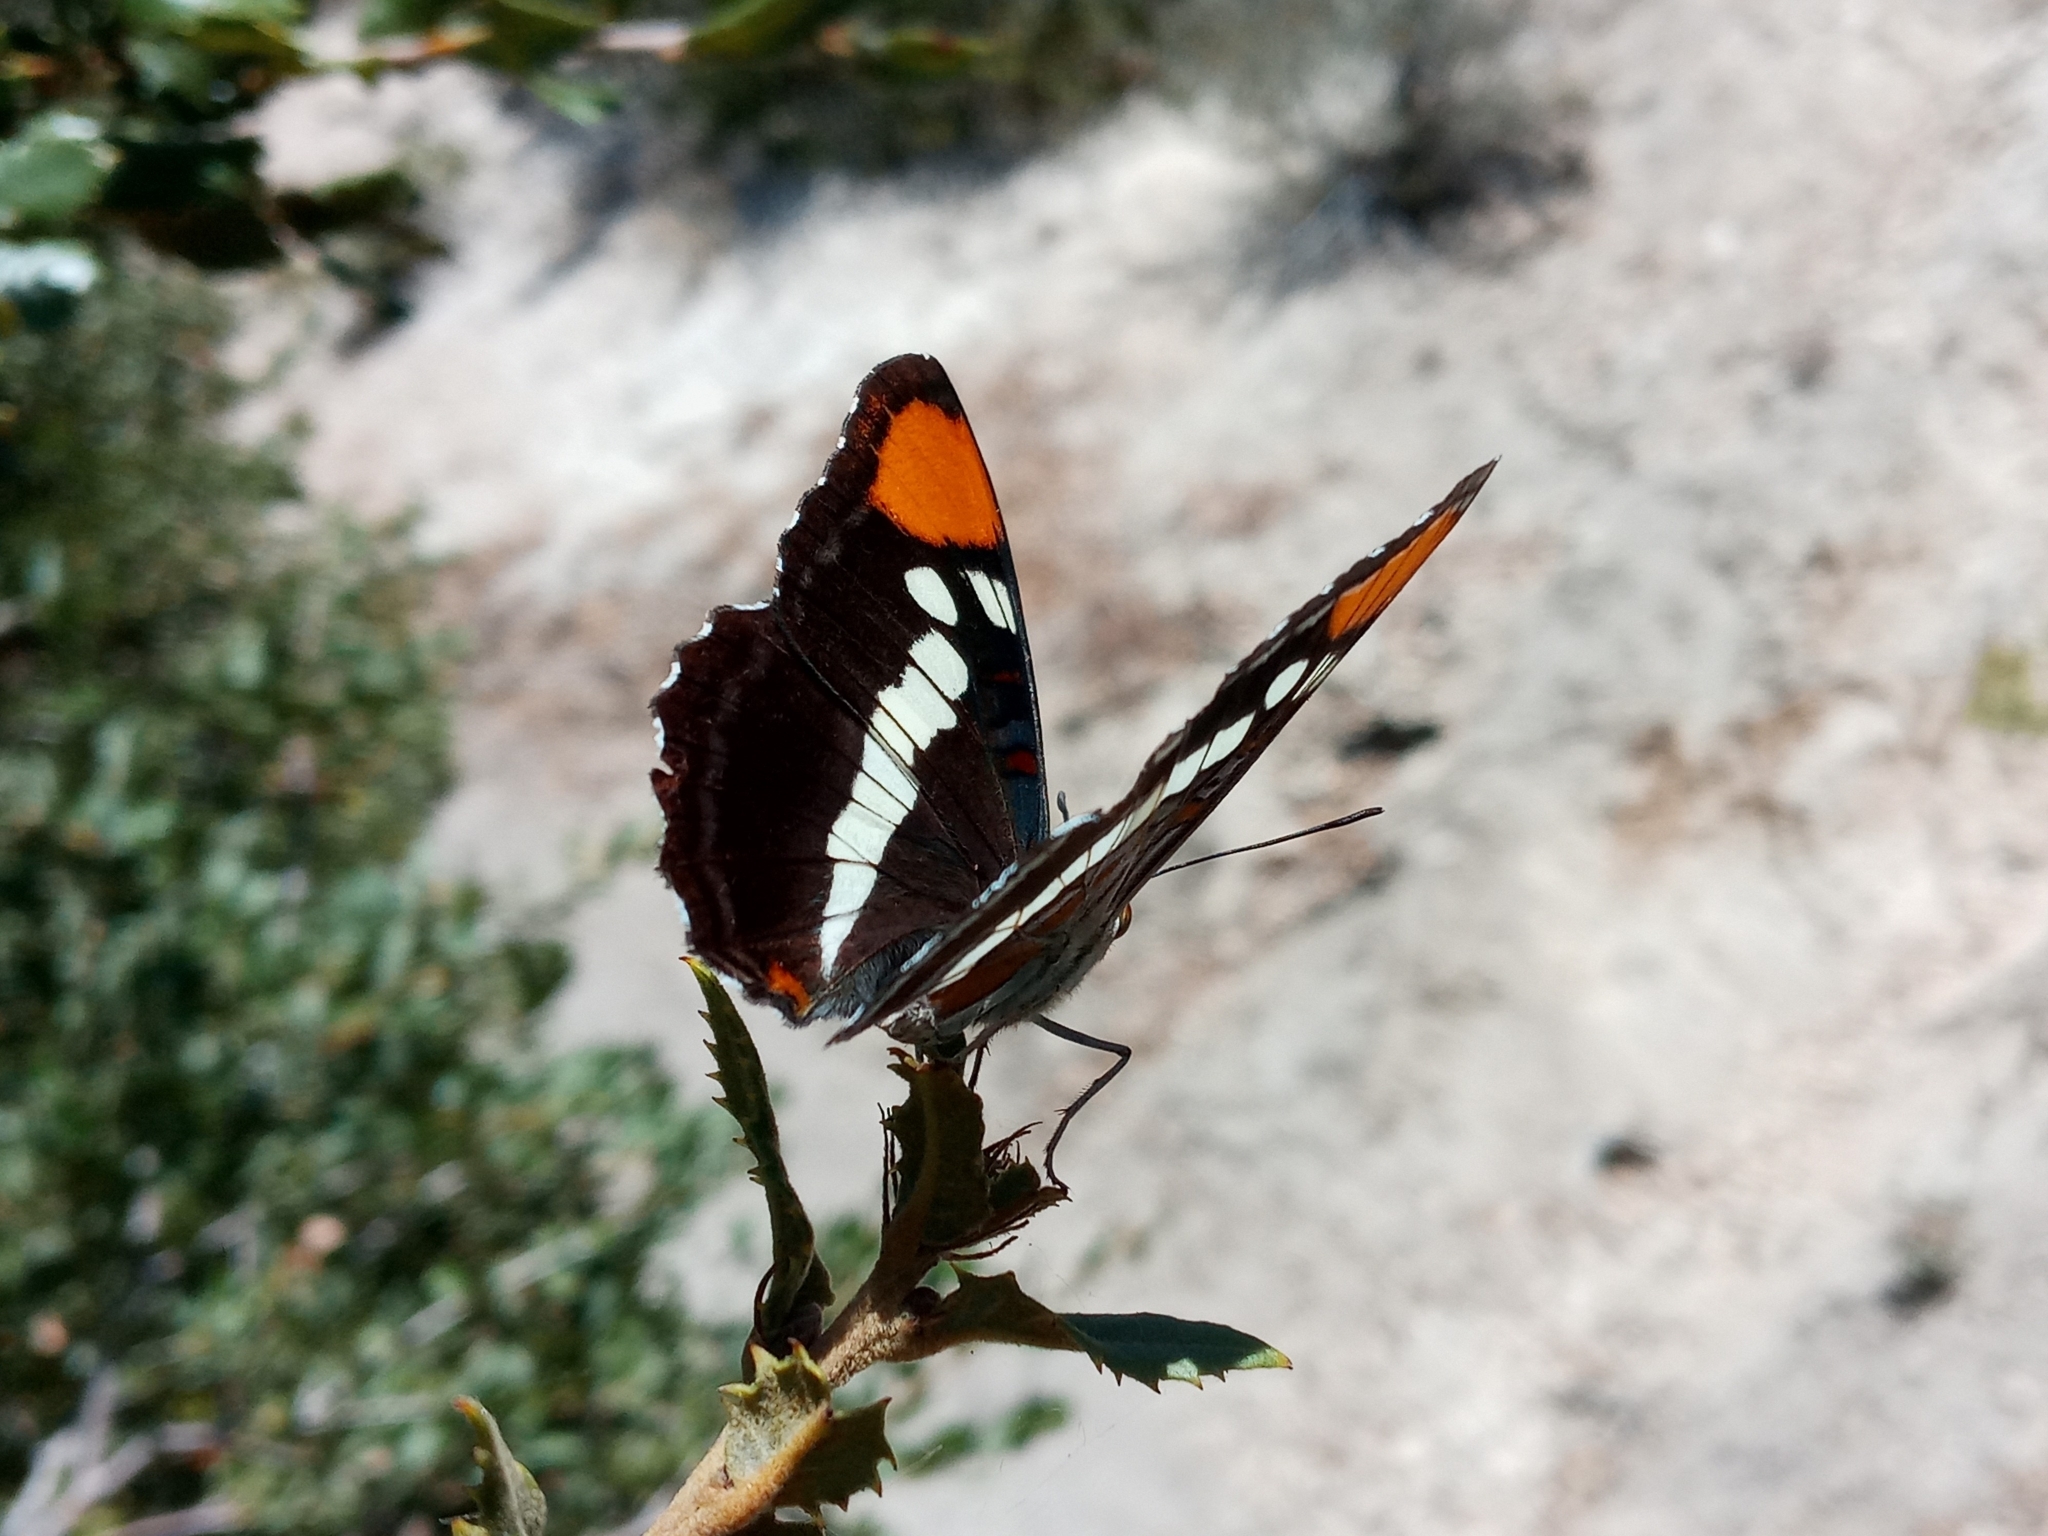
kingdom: Animalia
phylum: Arthropoda
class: Insecta
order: Lepidoptera
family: Nymphalidae
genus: Limenitis
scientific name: Limenitis bredowii
